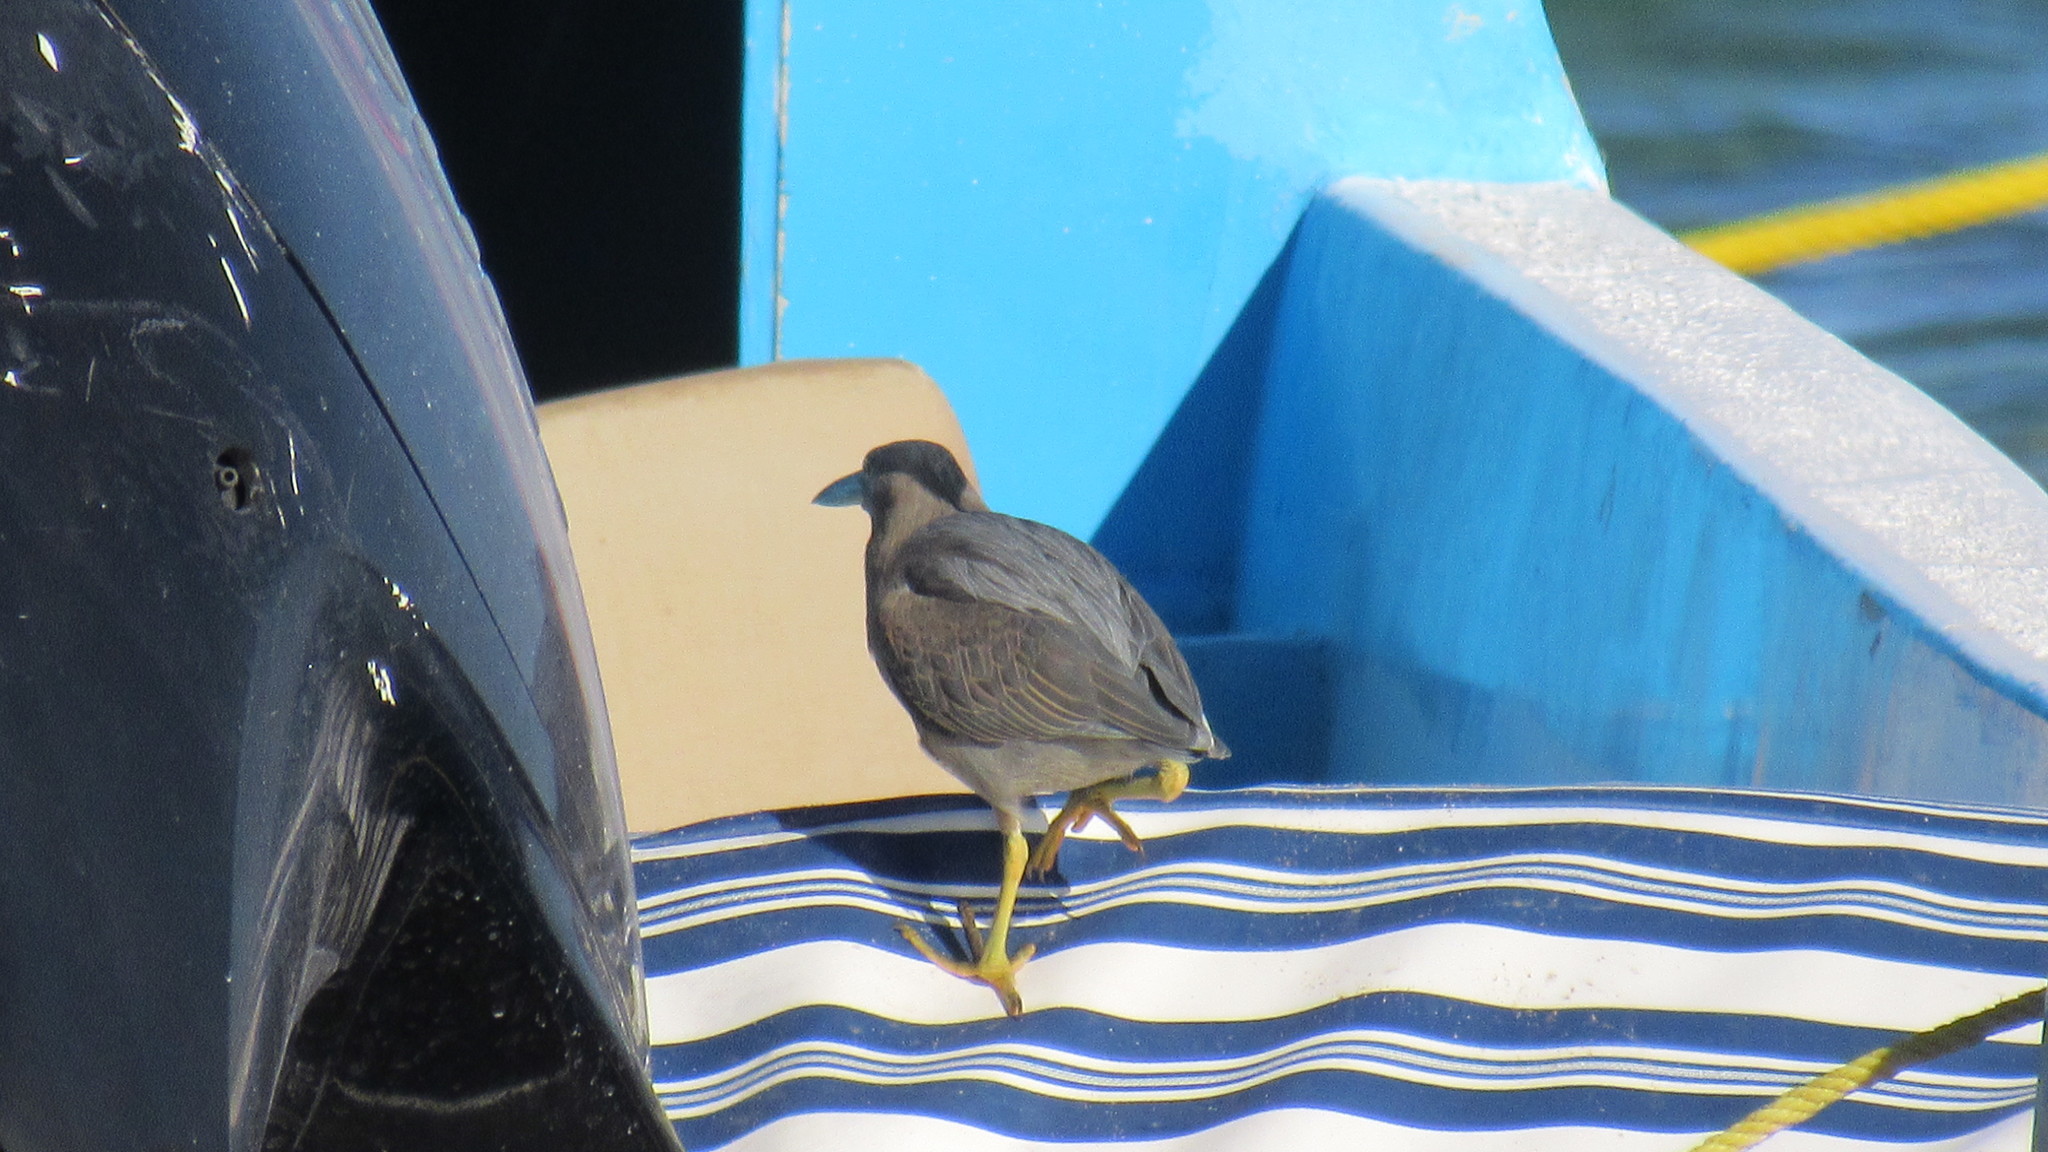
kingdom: Animalia
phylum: Chordata
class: Aves
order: Pelecaniformes
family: Ardeidae
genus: Butorides
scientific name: Butorides striata
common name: Striated heron
